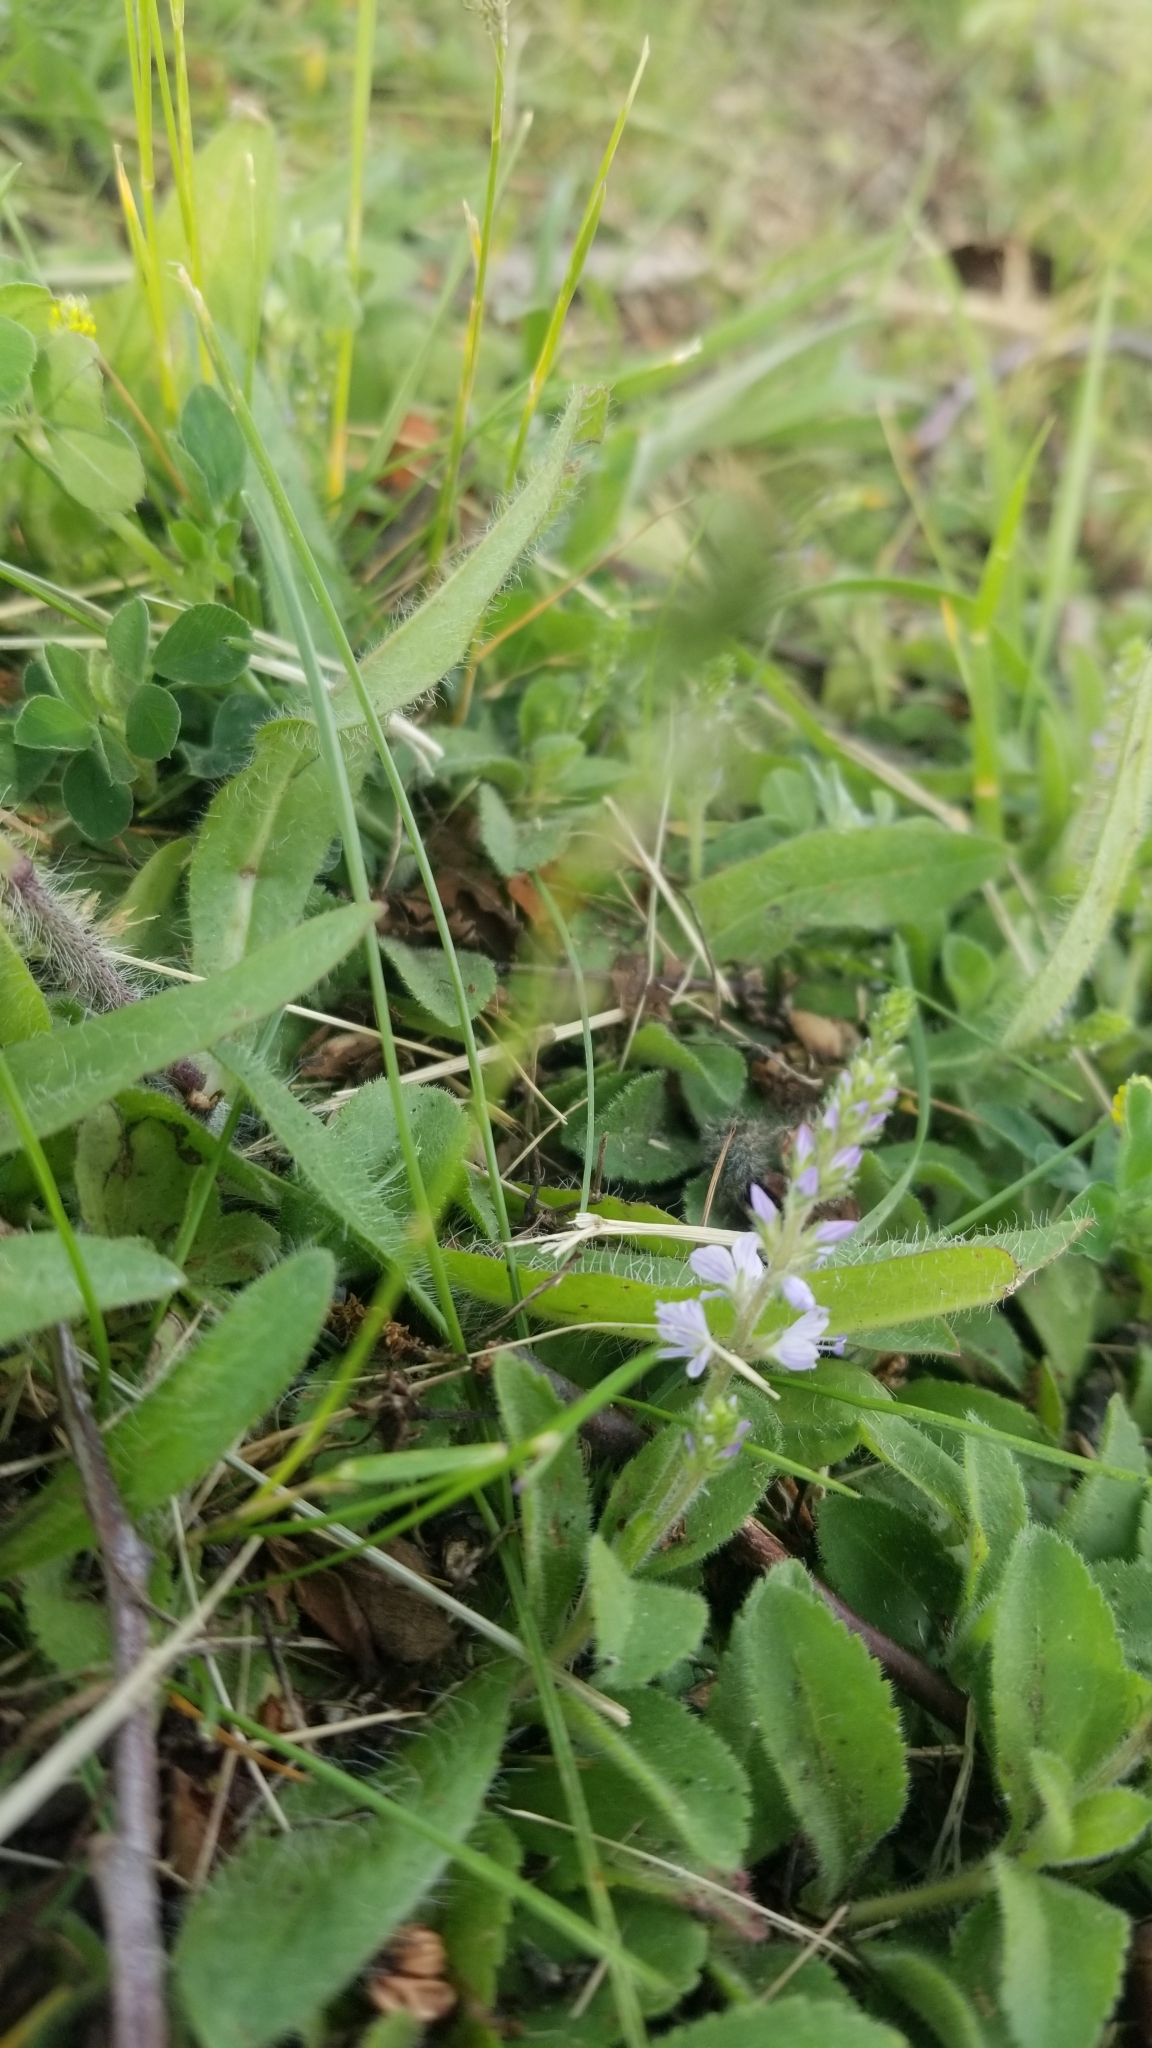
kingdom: Plantae
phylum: Tracheophyta
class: Magnoliopsida
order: Lamiales
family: Plantaginaceae
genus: Veronica
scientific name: Veronica officinalis
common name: Common speedwell
